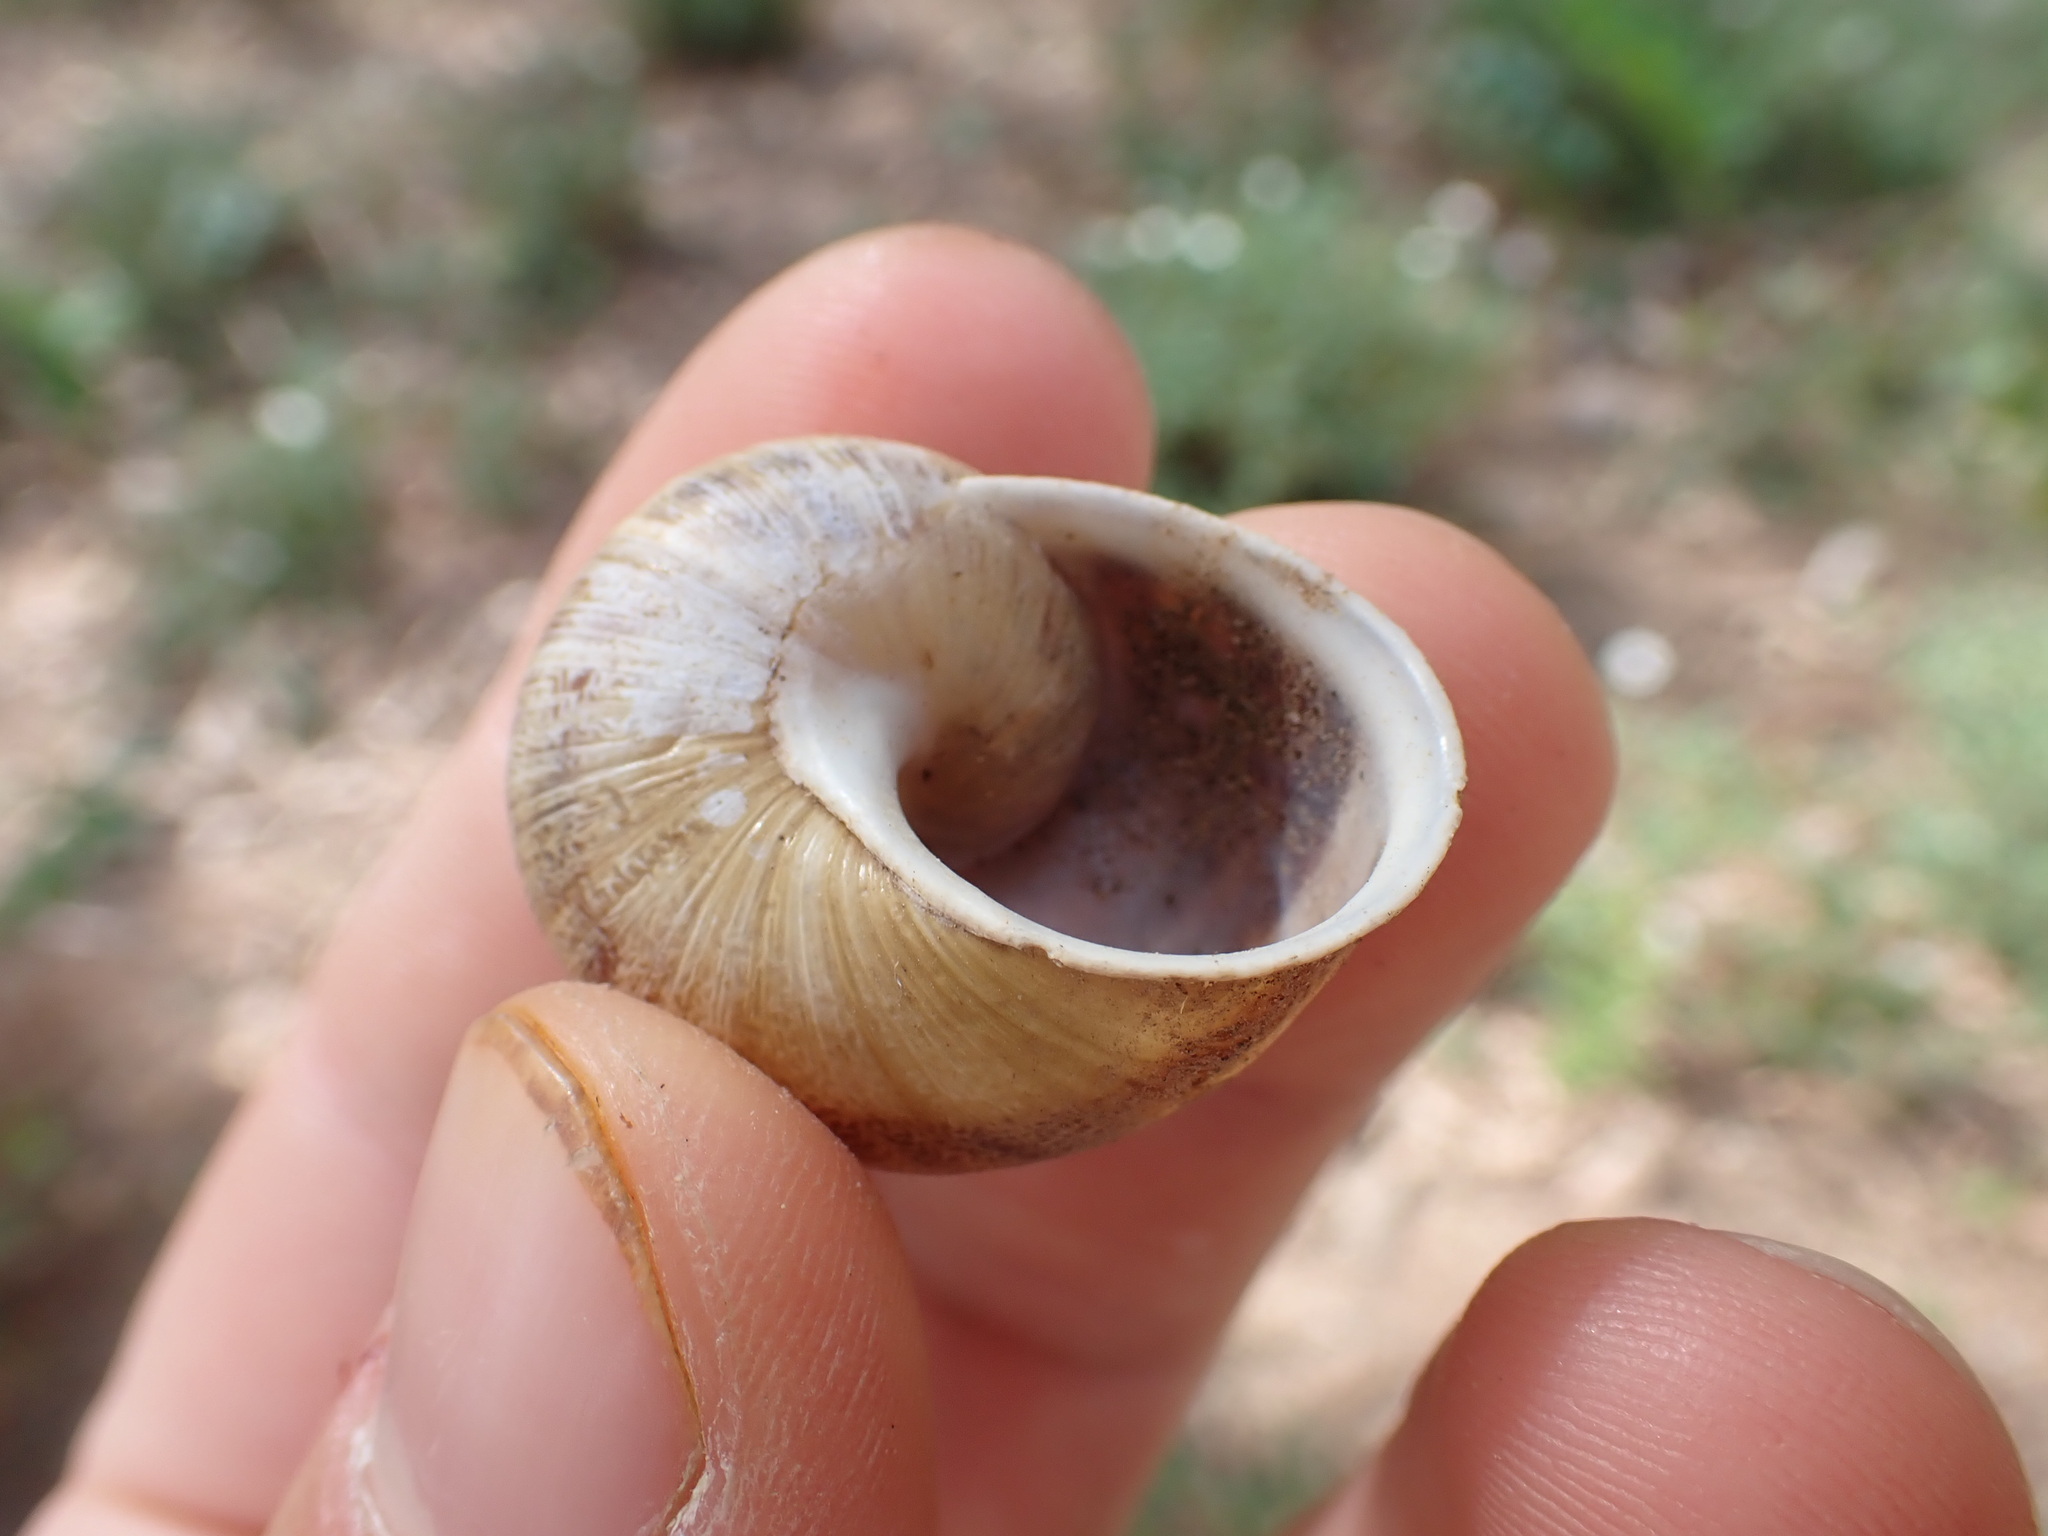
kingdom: Animalia
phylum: Mollusca
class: Gastropoda
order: Stylommatophora
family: Helicidae
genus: Cornu
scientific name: Cornu aspersum
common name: Brown garden snail
